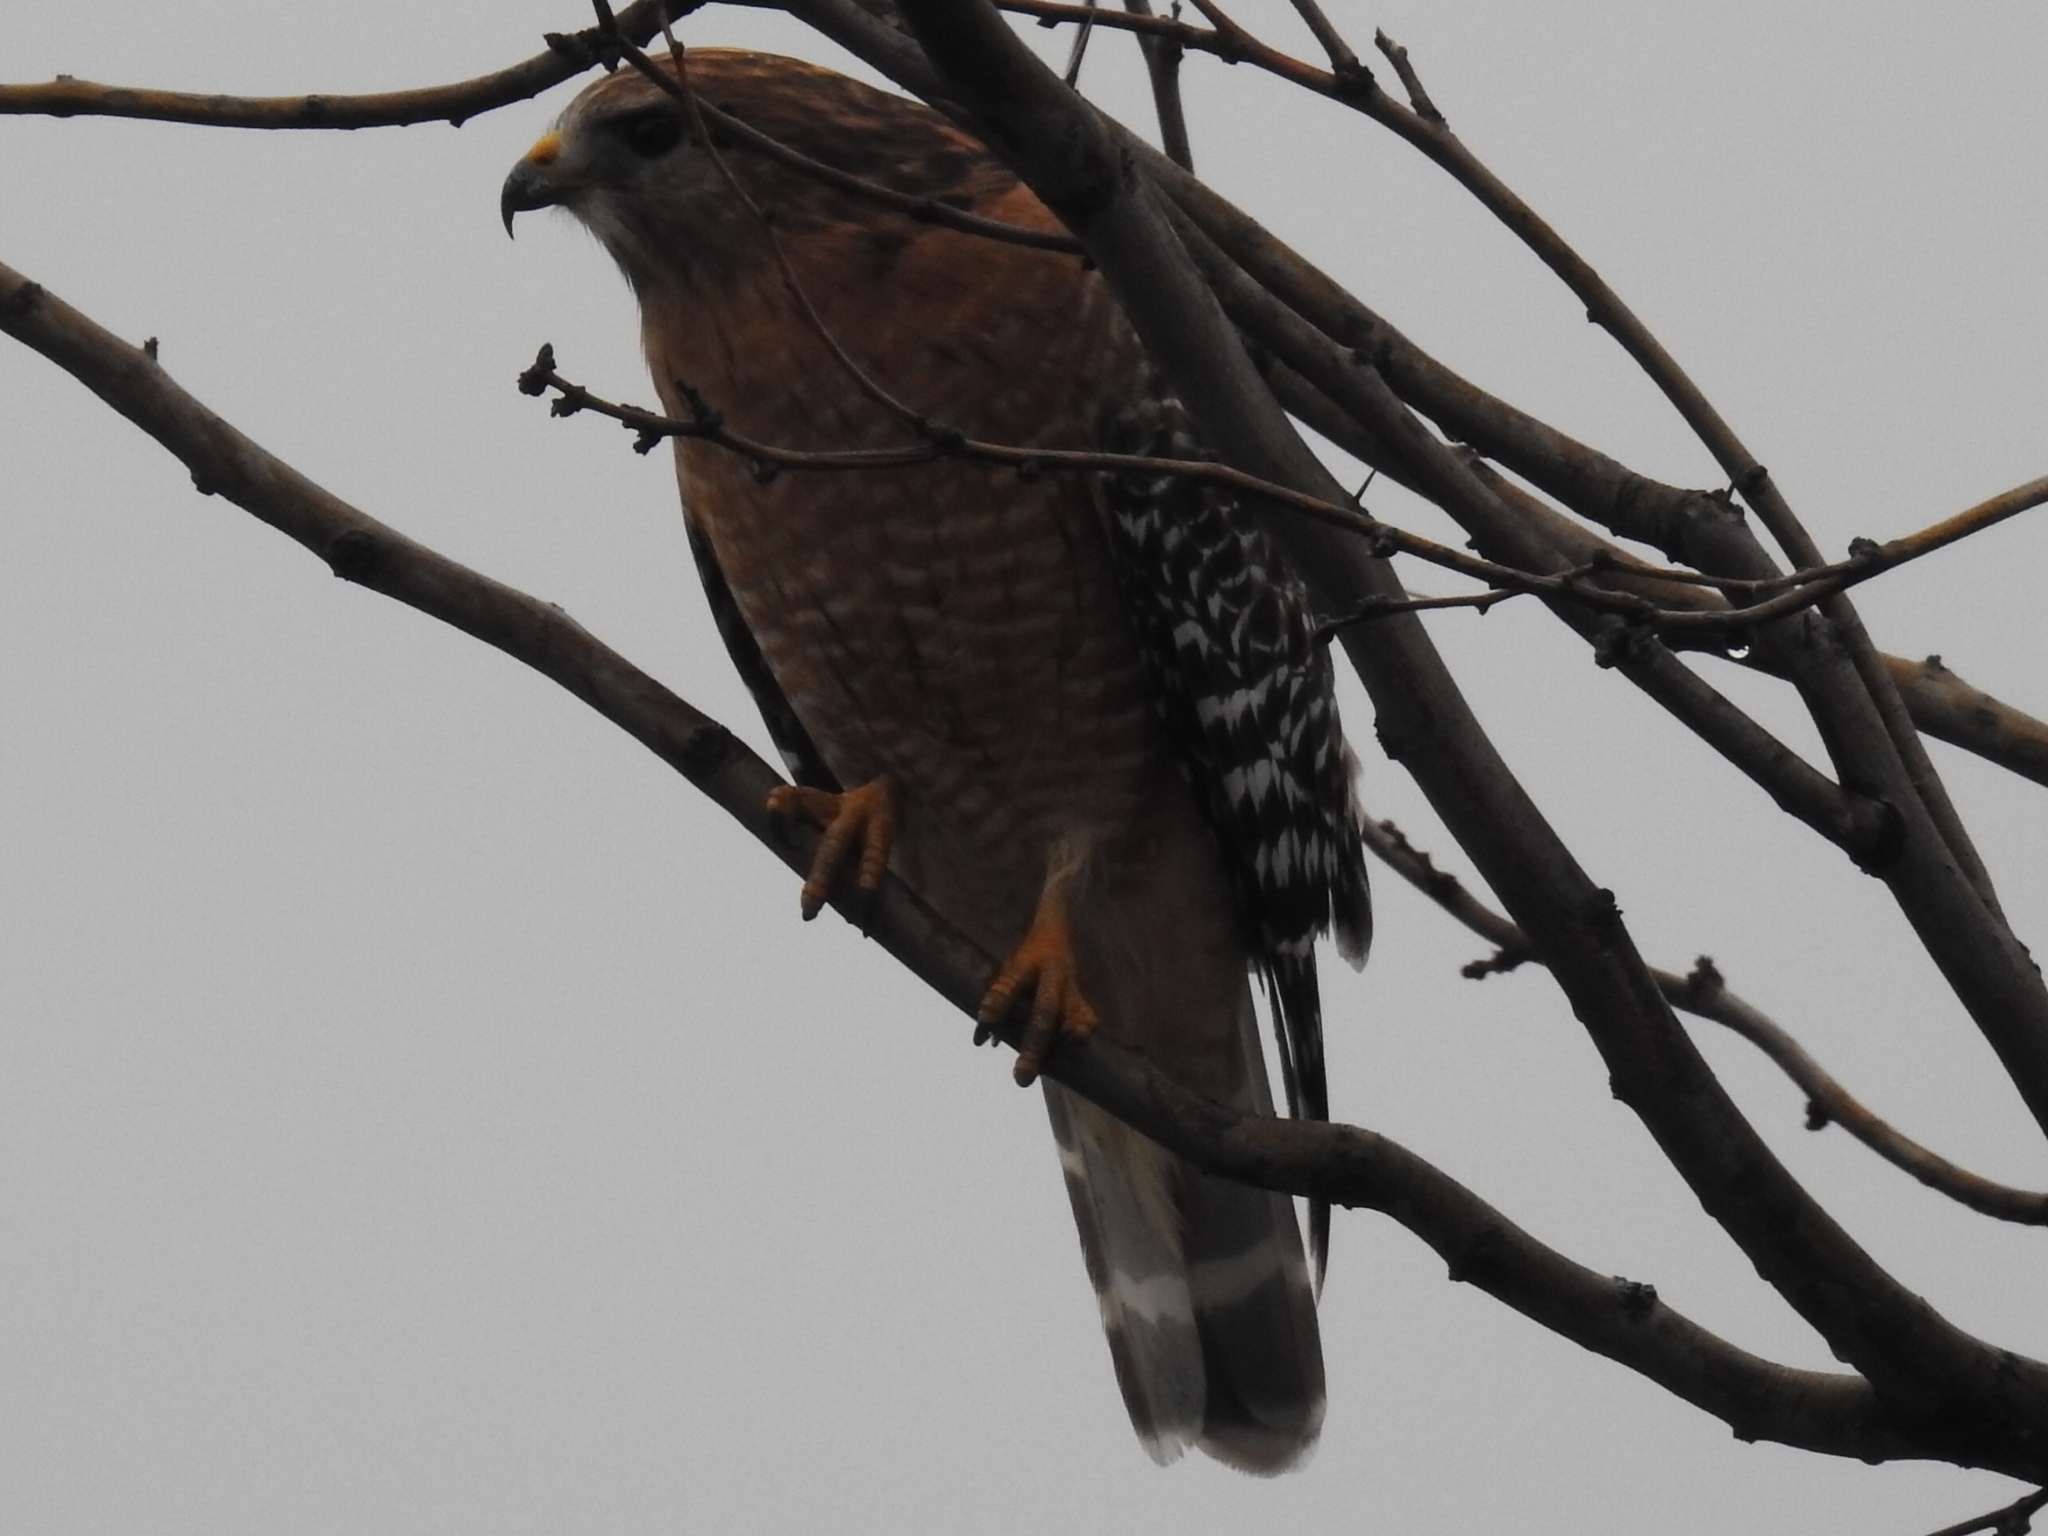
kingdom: Animalia
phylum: Chordata
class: Aves
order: Accipitriformes
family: Accipitridae
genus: Buteo
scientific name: Buteo lineatus
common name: Red-shouldered hawk
